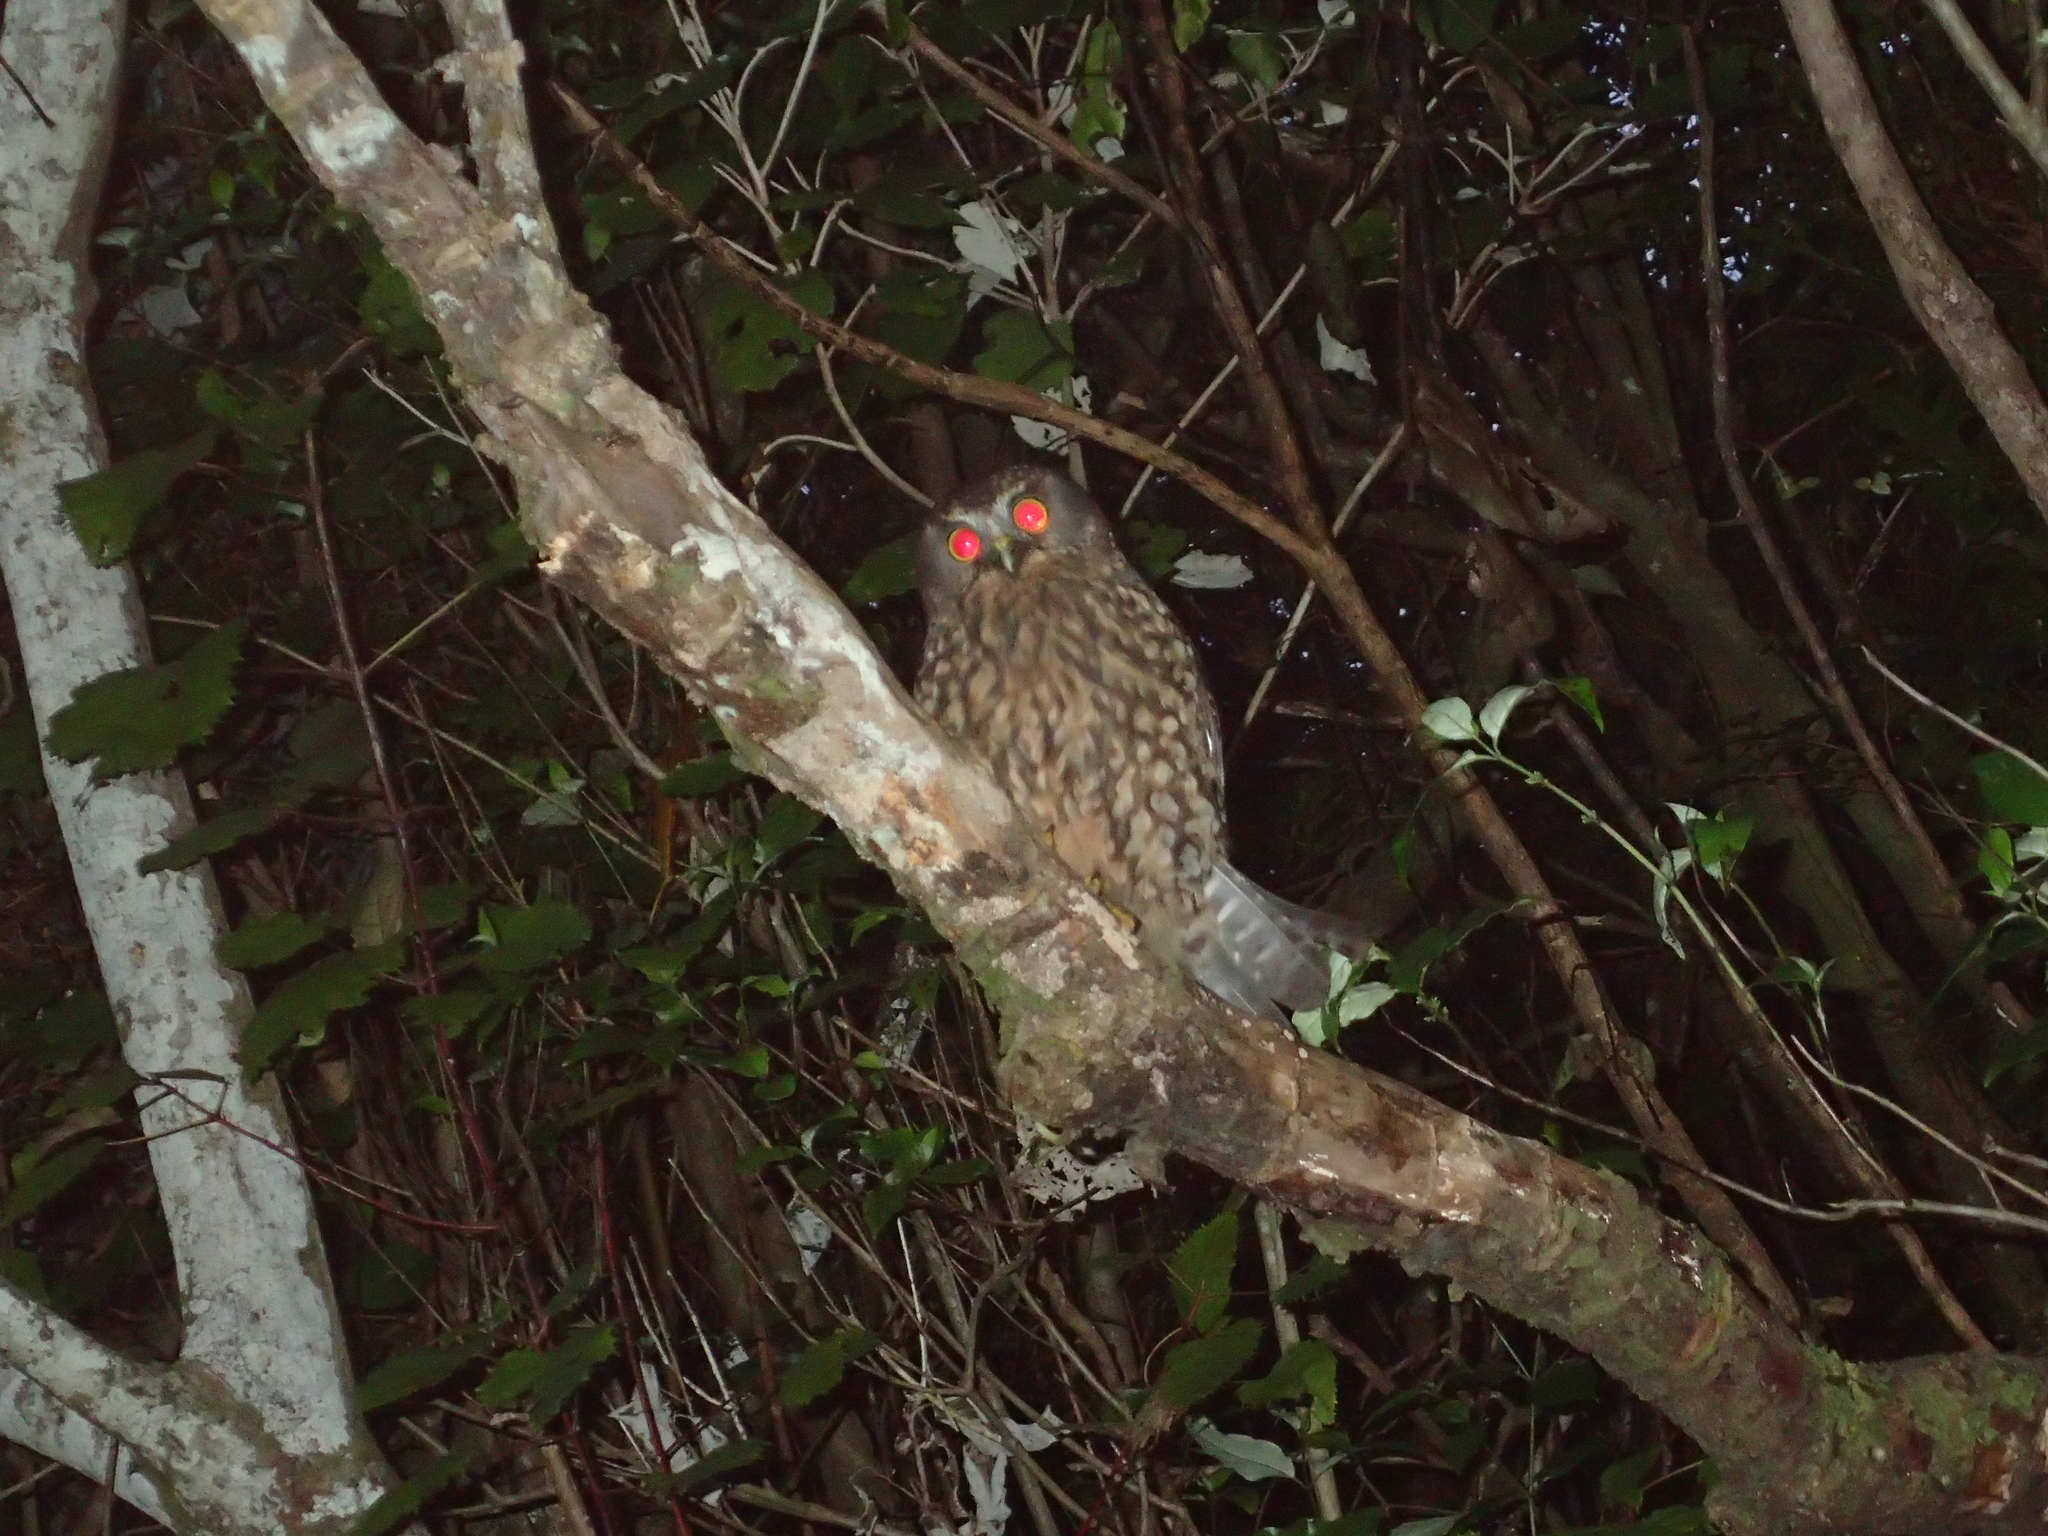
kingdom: Animalia
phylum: Chordata
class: Aves
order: Strigiformes
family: Strigidae
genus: Ninox
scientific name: Ninox novaeseelandiae
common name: Morepork
